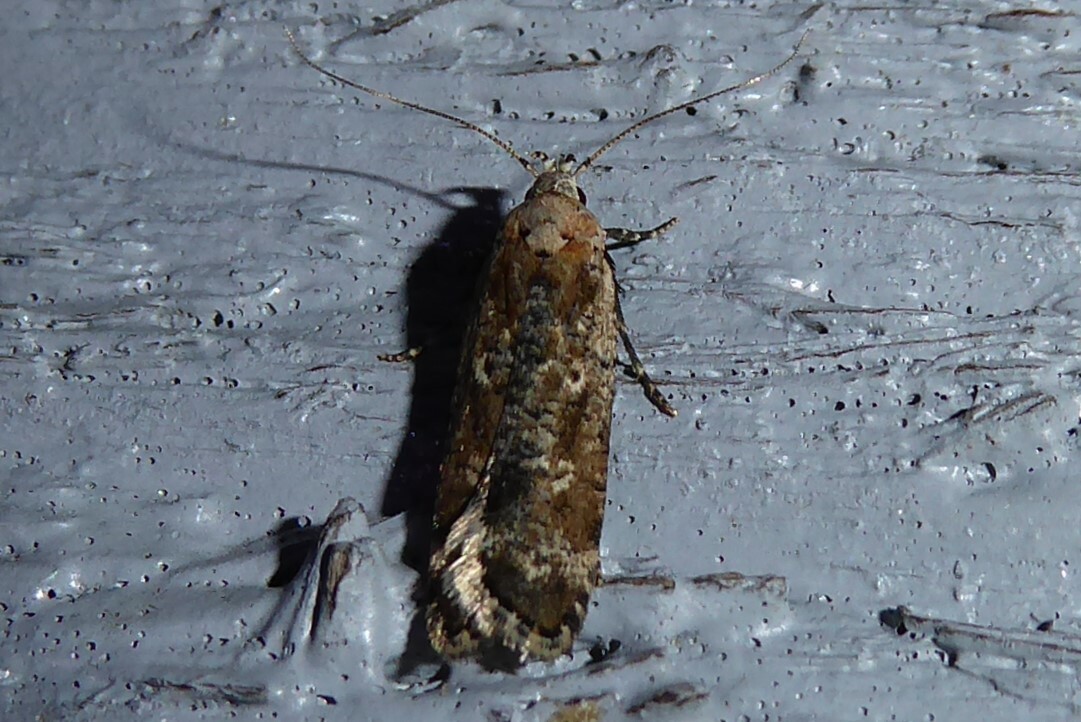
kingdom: Animalia
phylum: Arthropoda
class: Insecta
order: Lepidoptera
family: Gelechiidae
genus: Anisoplaca
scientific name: Anisoplaca achyrota
